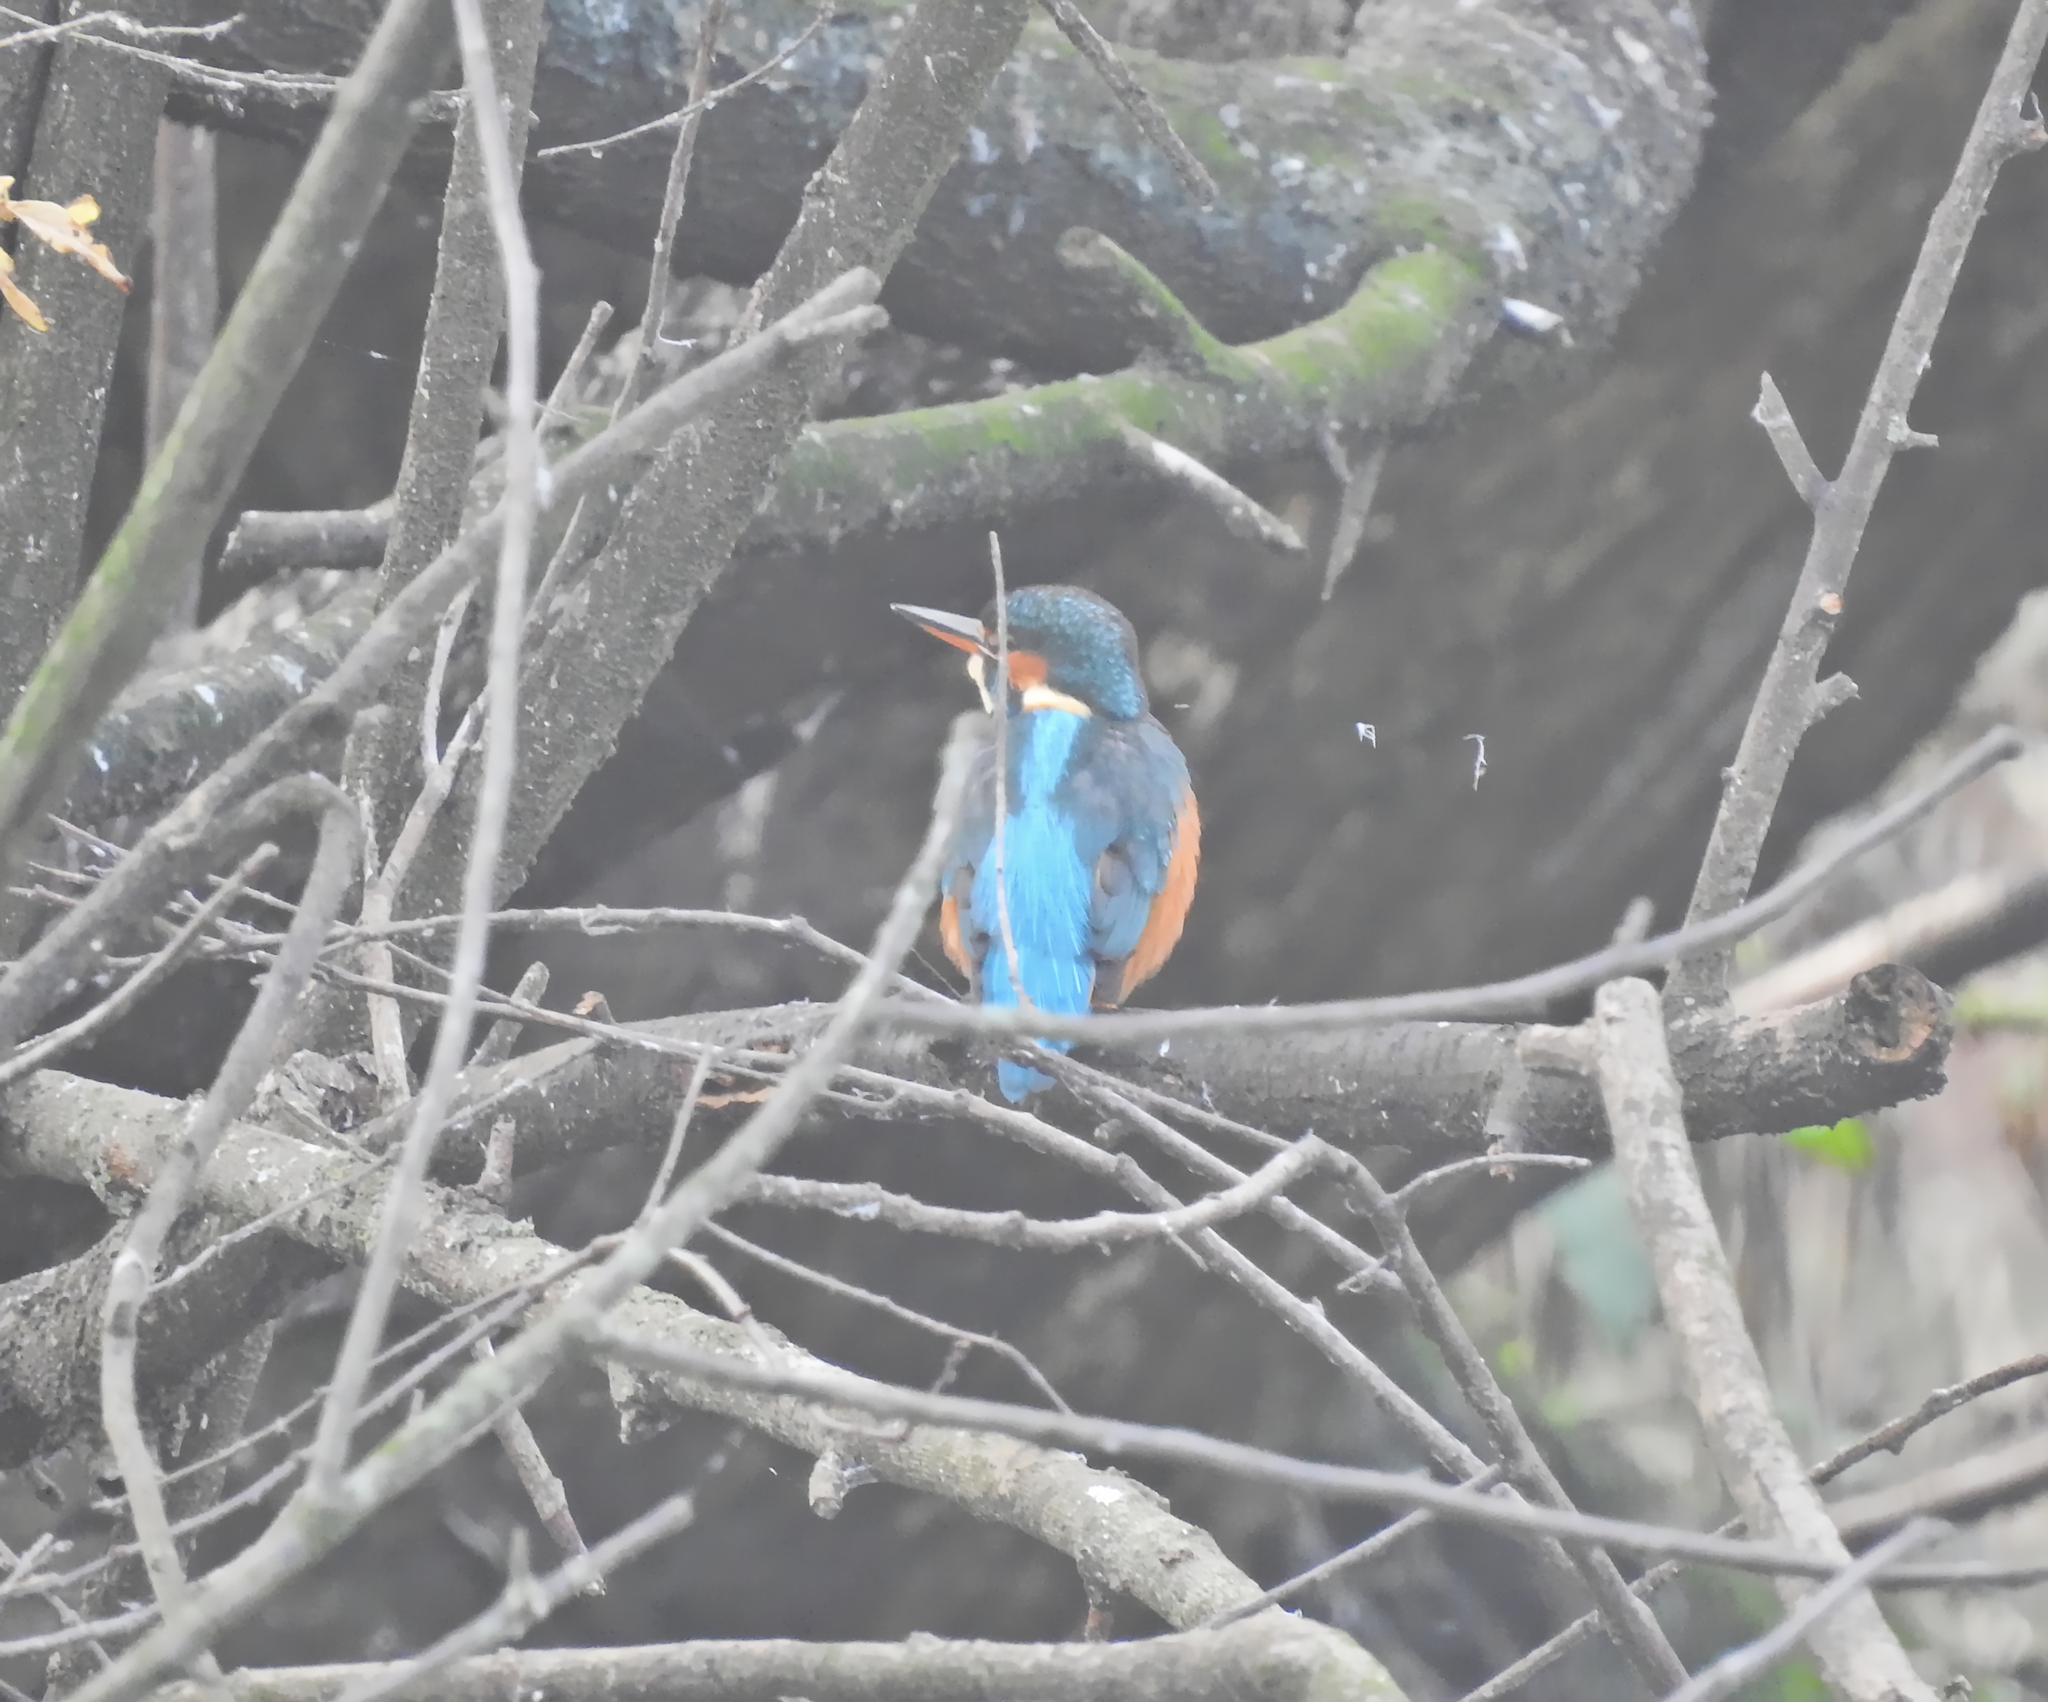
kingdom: Animalia
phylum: Chordata
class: Aves
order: Coraciiformes
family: Alcedinidae
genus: Alcedo
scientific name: Alcedo atthis
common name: Common kingfisher
